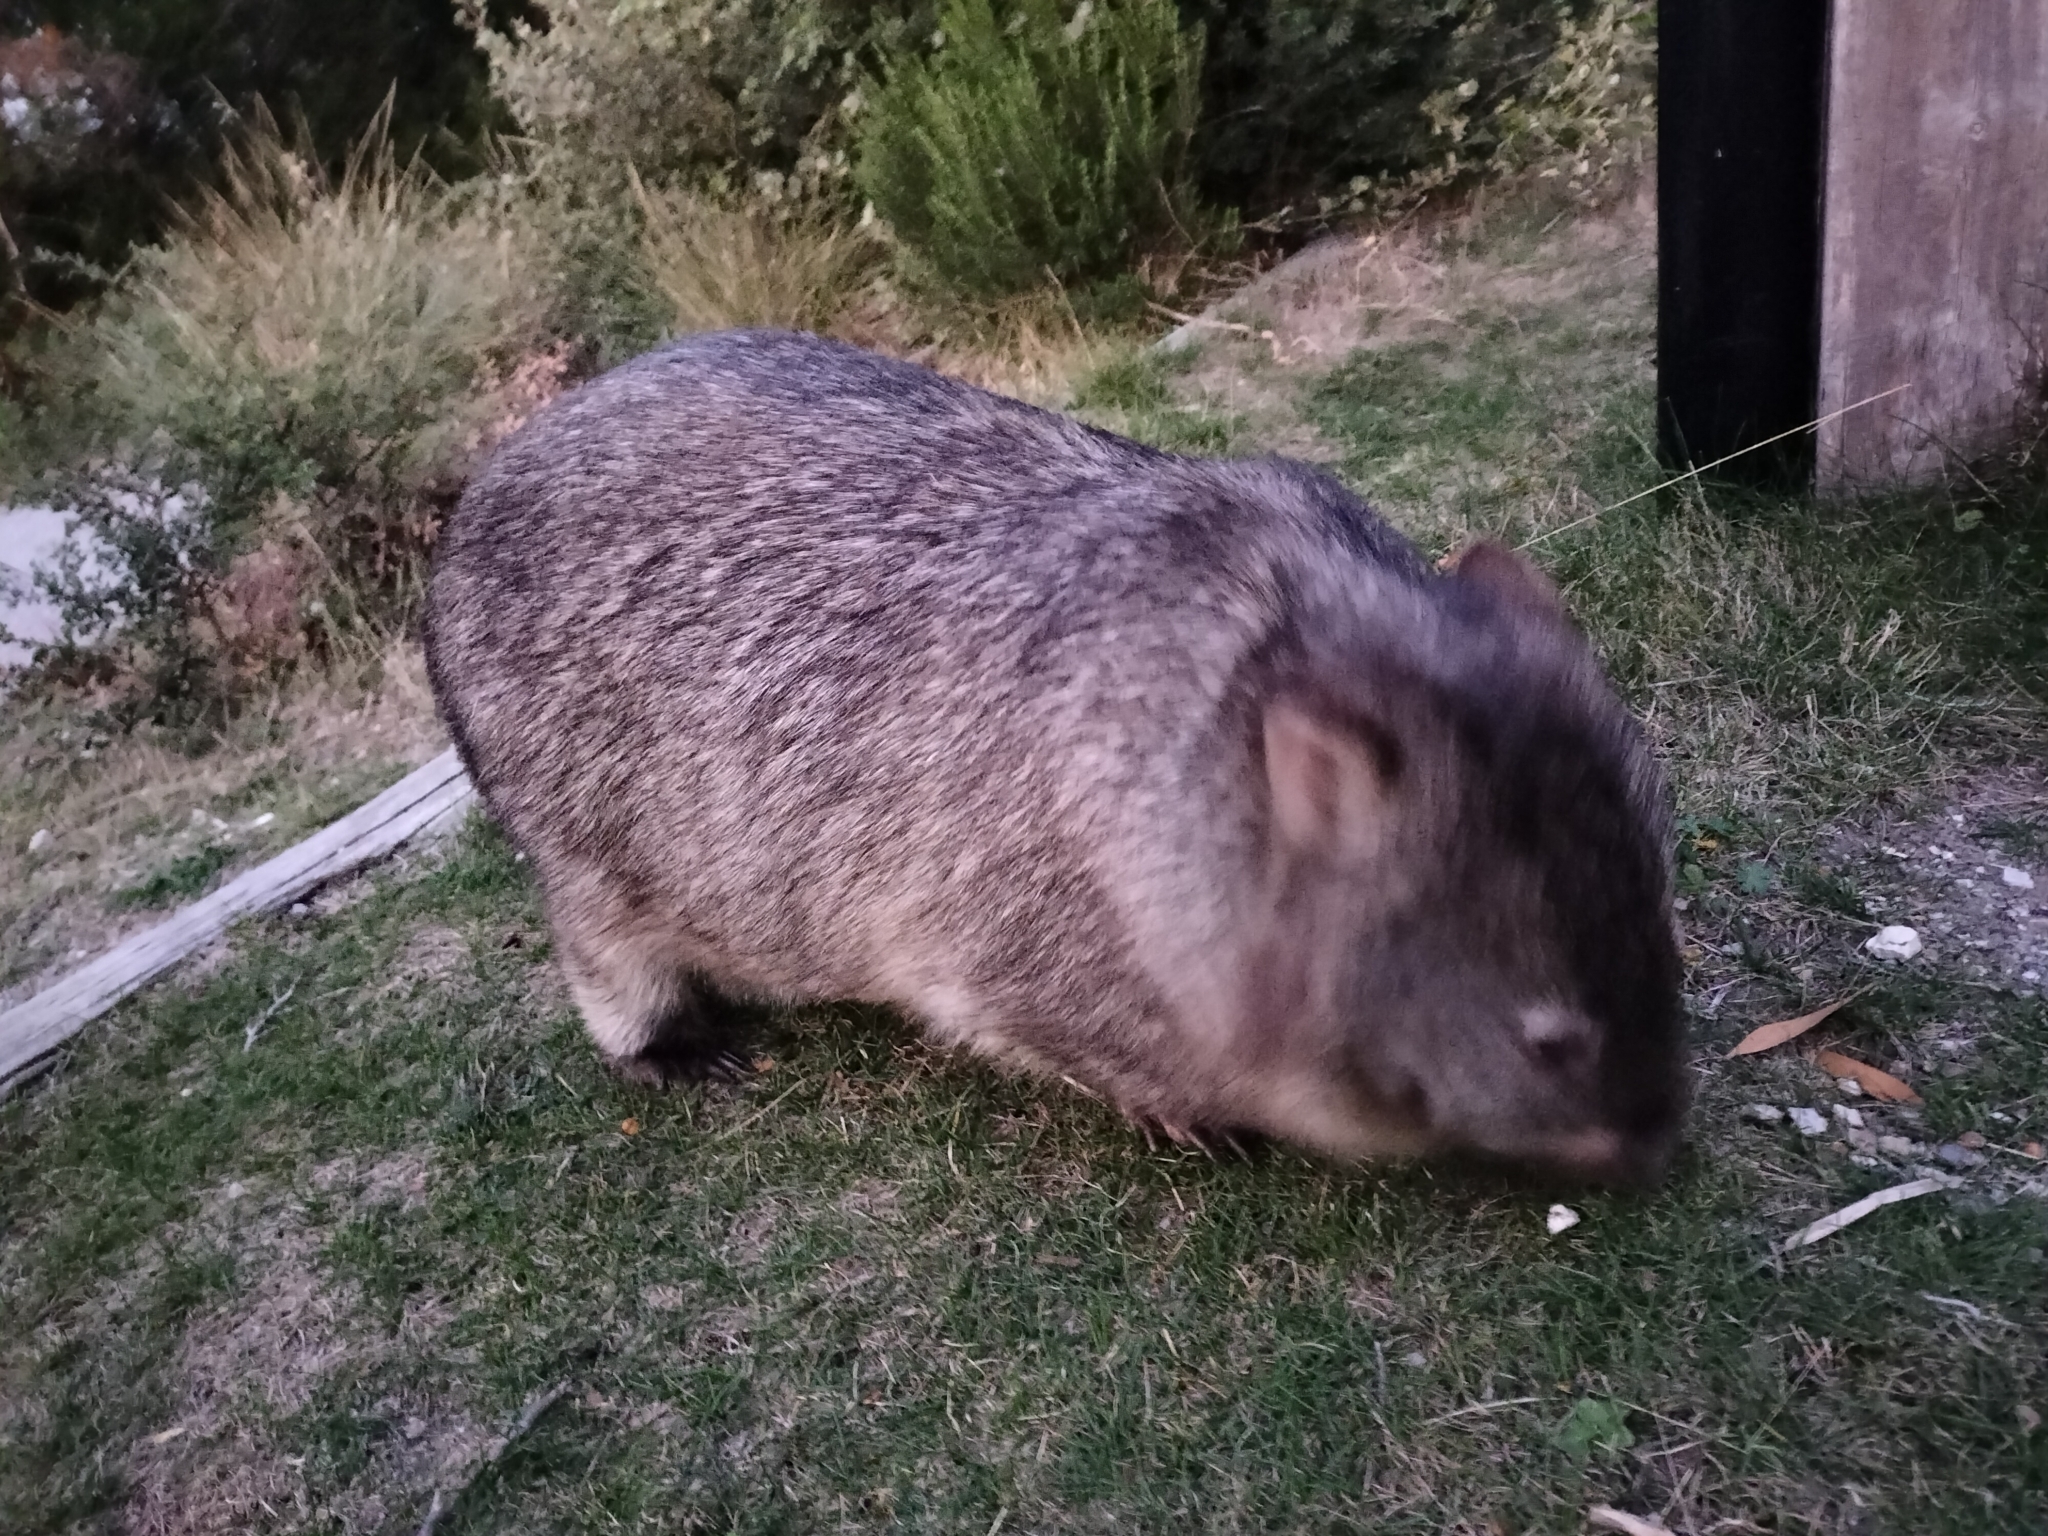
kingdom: Animalia
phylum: Chordata
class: Mammalia
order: Diprotodontia
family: Vombatidae
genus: Vombatus
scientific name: Vombatus ursinus
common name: Common wombat
